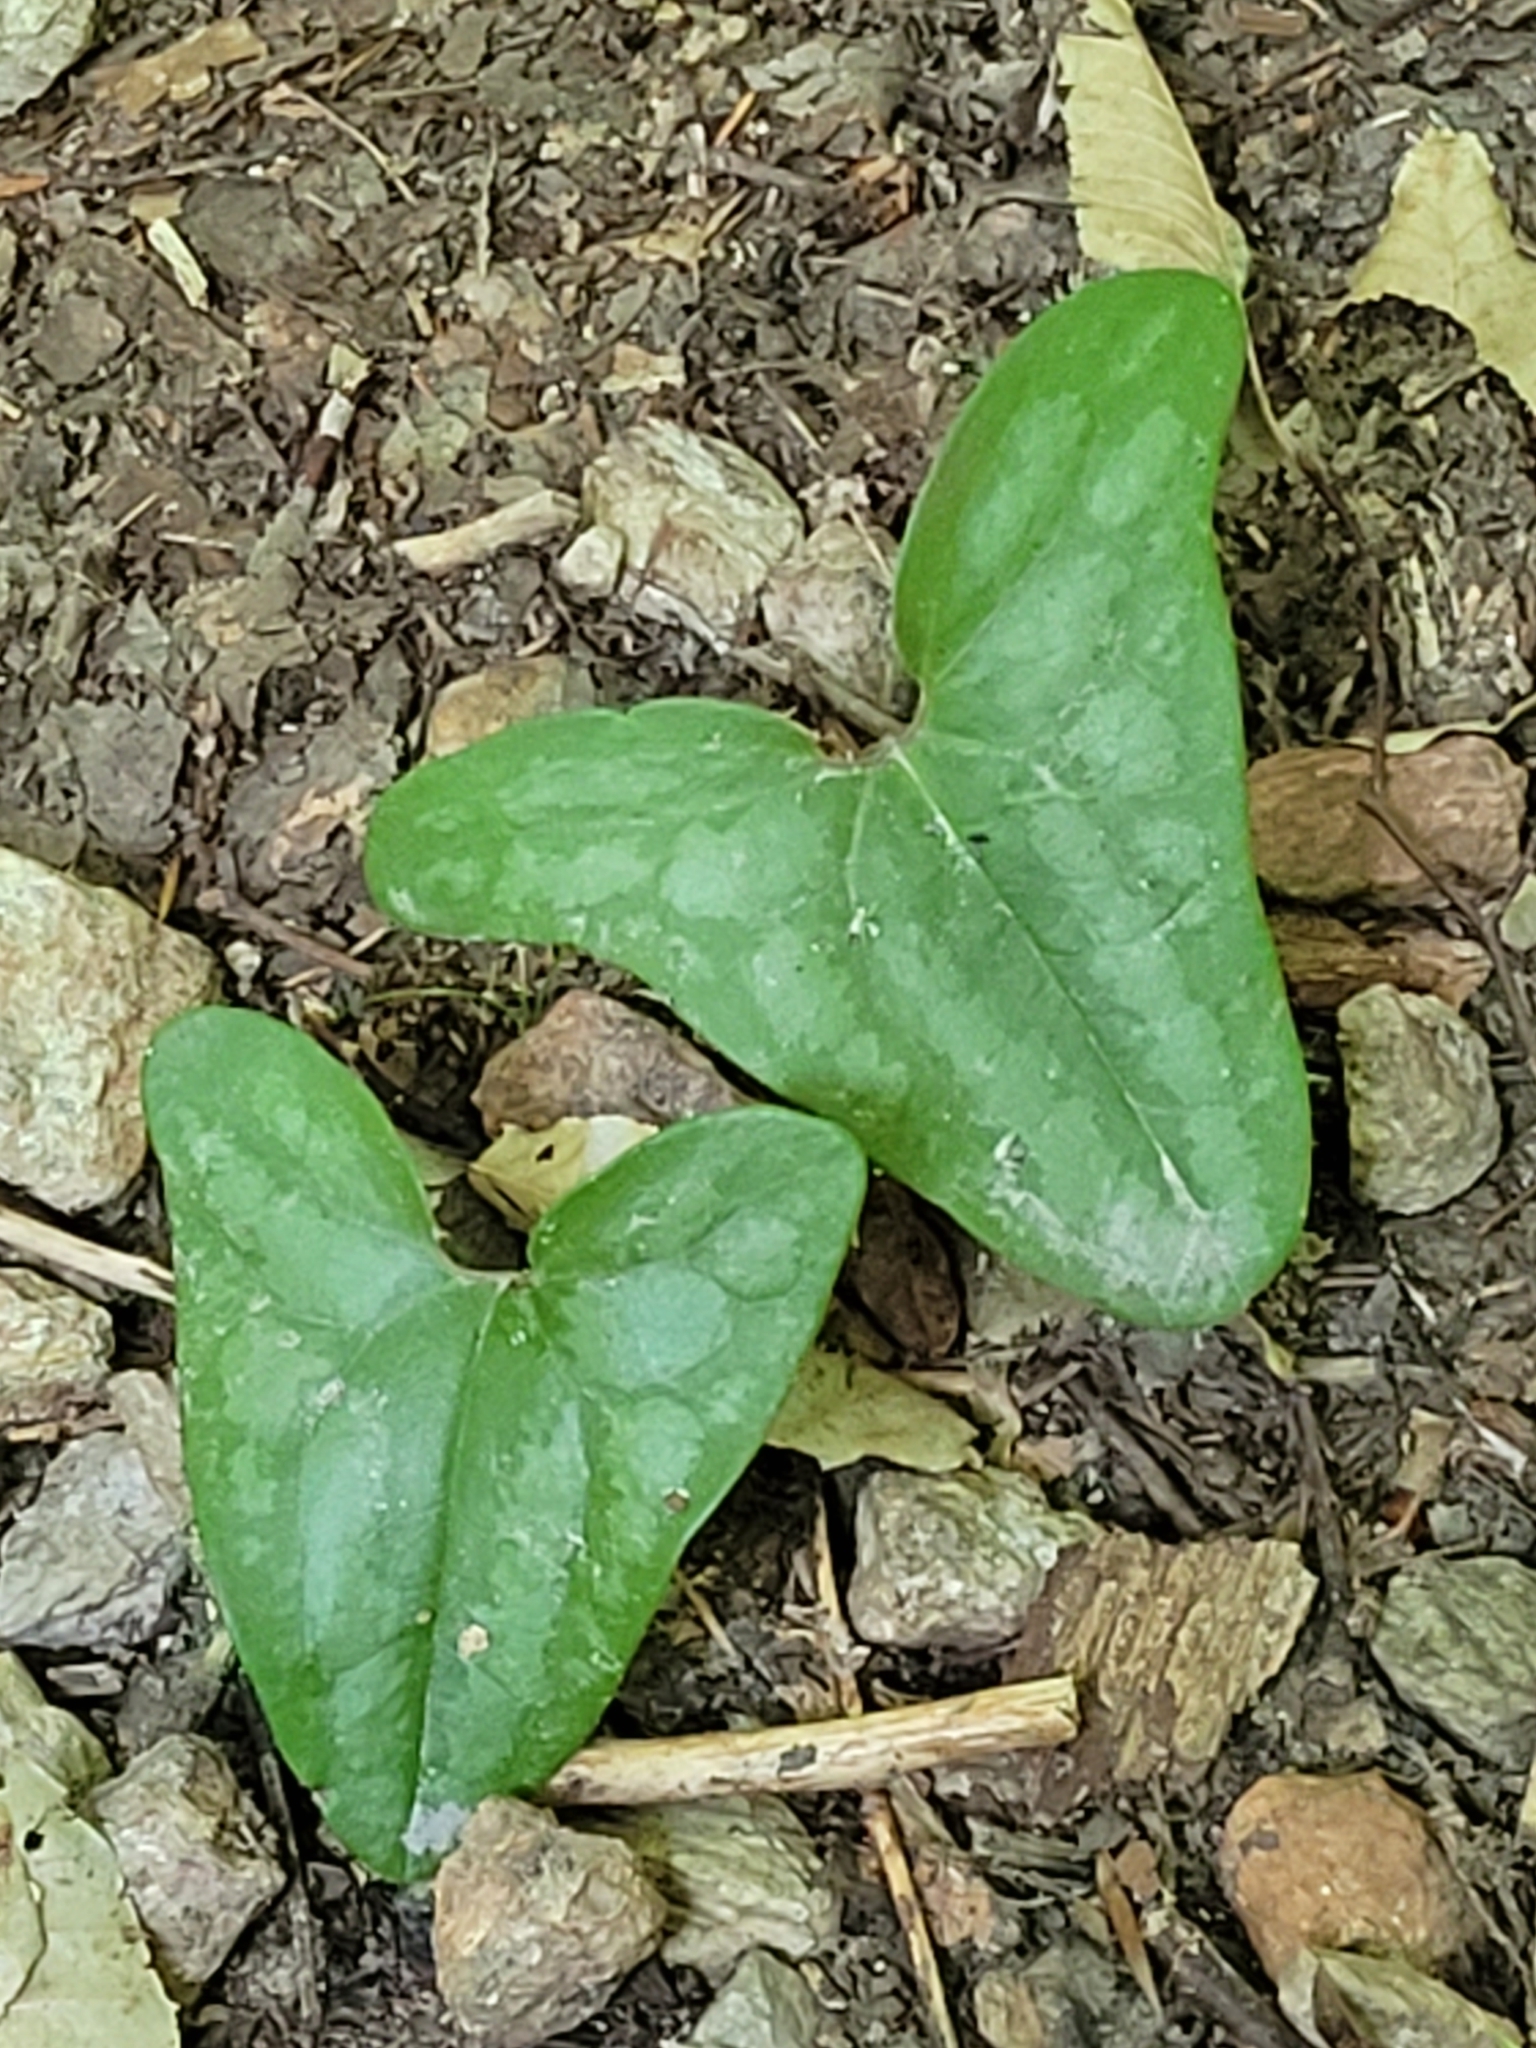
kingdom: Plantae
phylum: Tracheophyta
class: Magnoliopsida
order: Piperales
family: Aristolochiaceae
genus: Hexastylis
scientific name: Hexastylis arifolia
